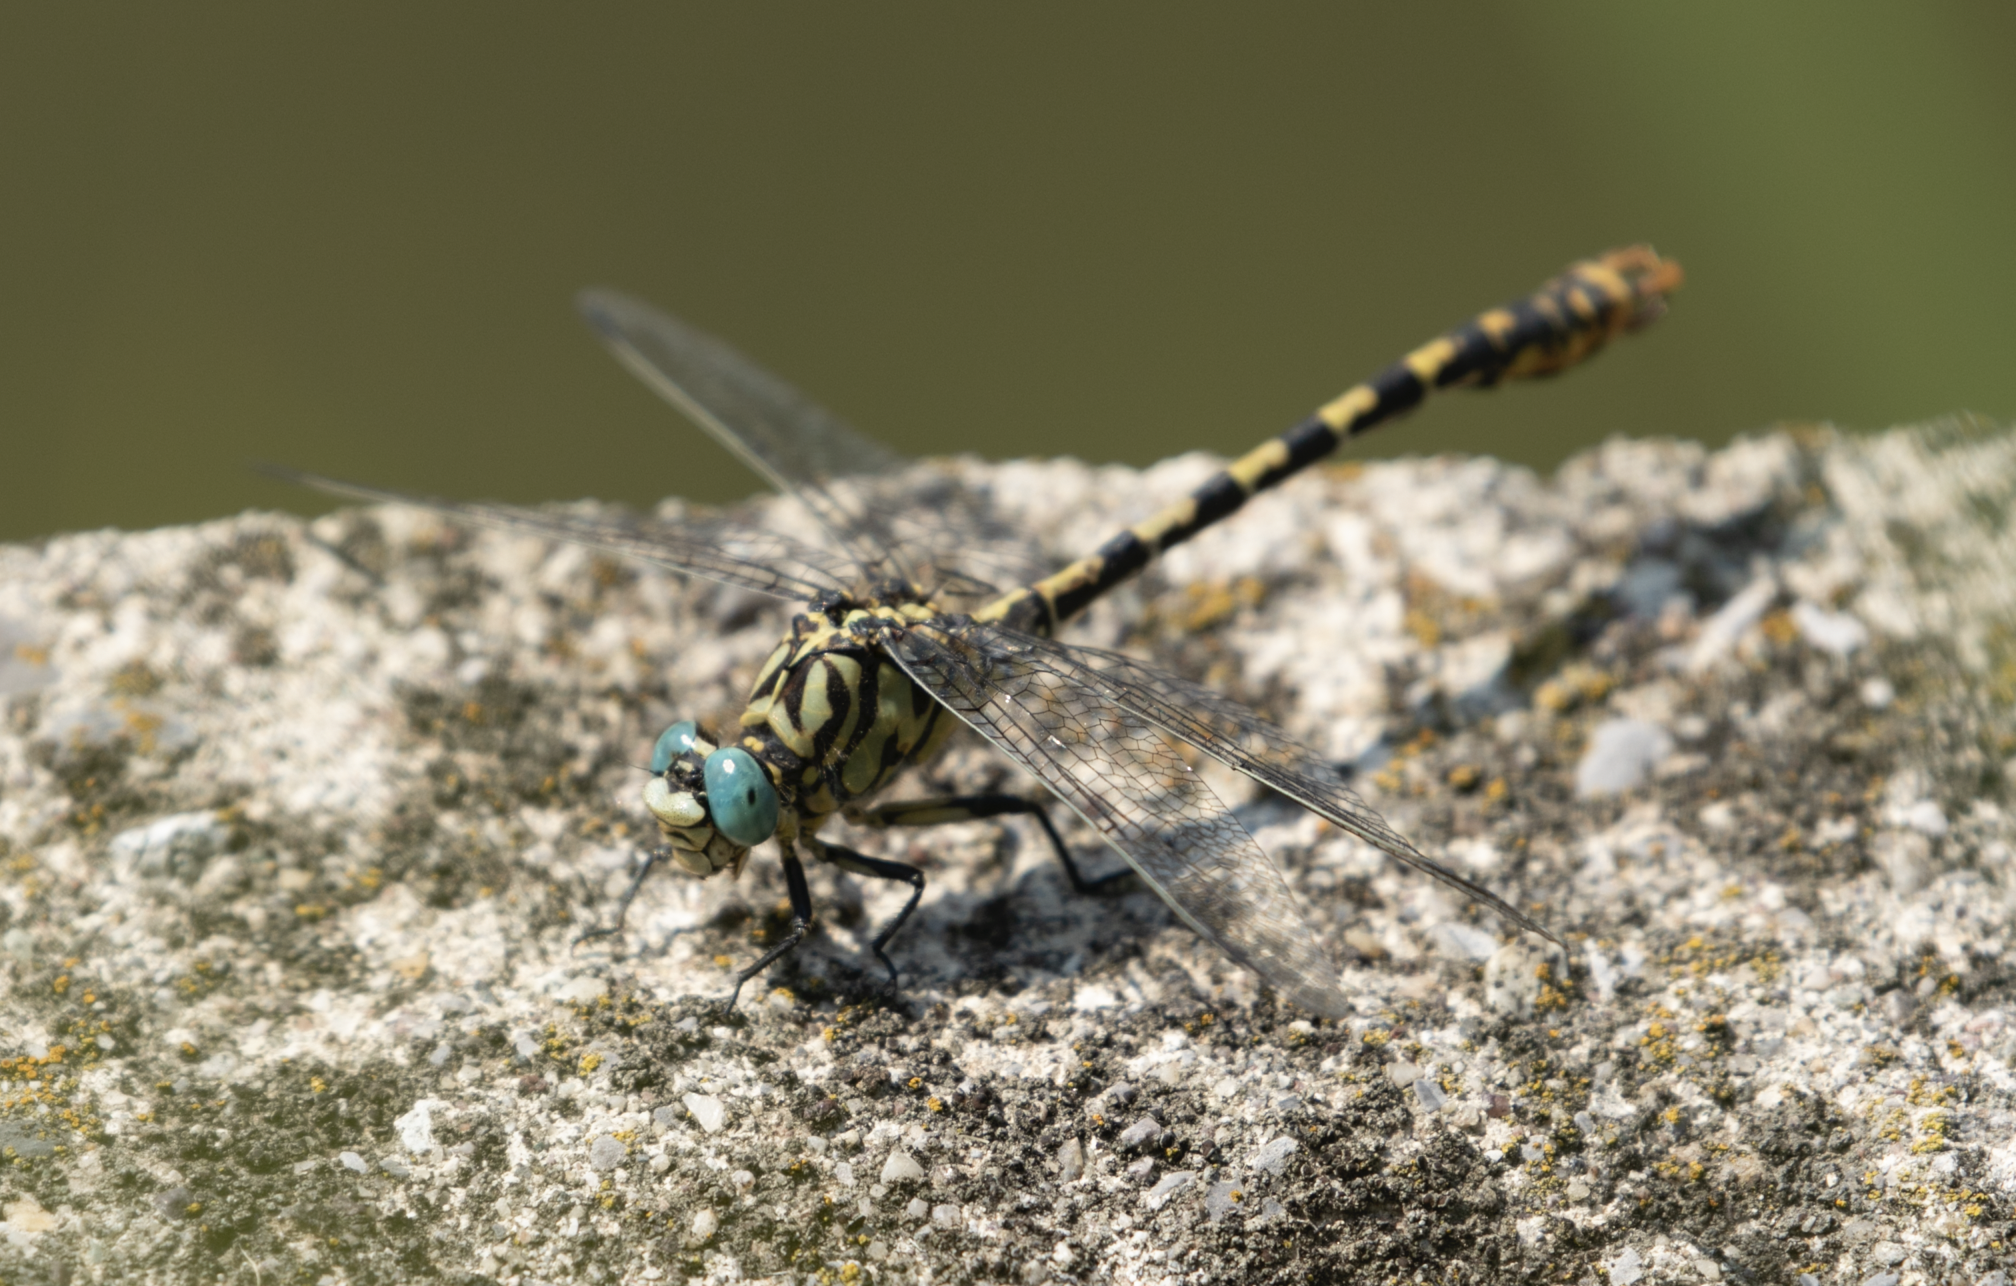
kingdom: Animalia
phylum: Arthropoda
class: Insecta
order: Odonata
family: Gomphidae
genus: Onychogomphus
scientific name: Onychogomphus forcipatus
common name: Small pincertail
